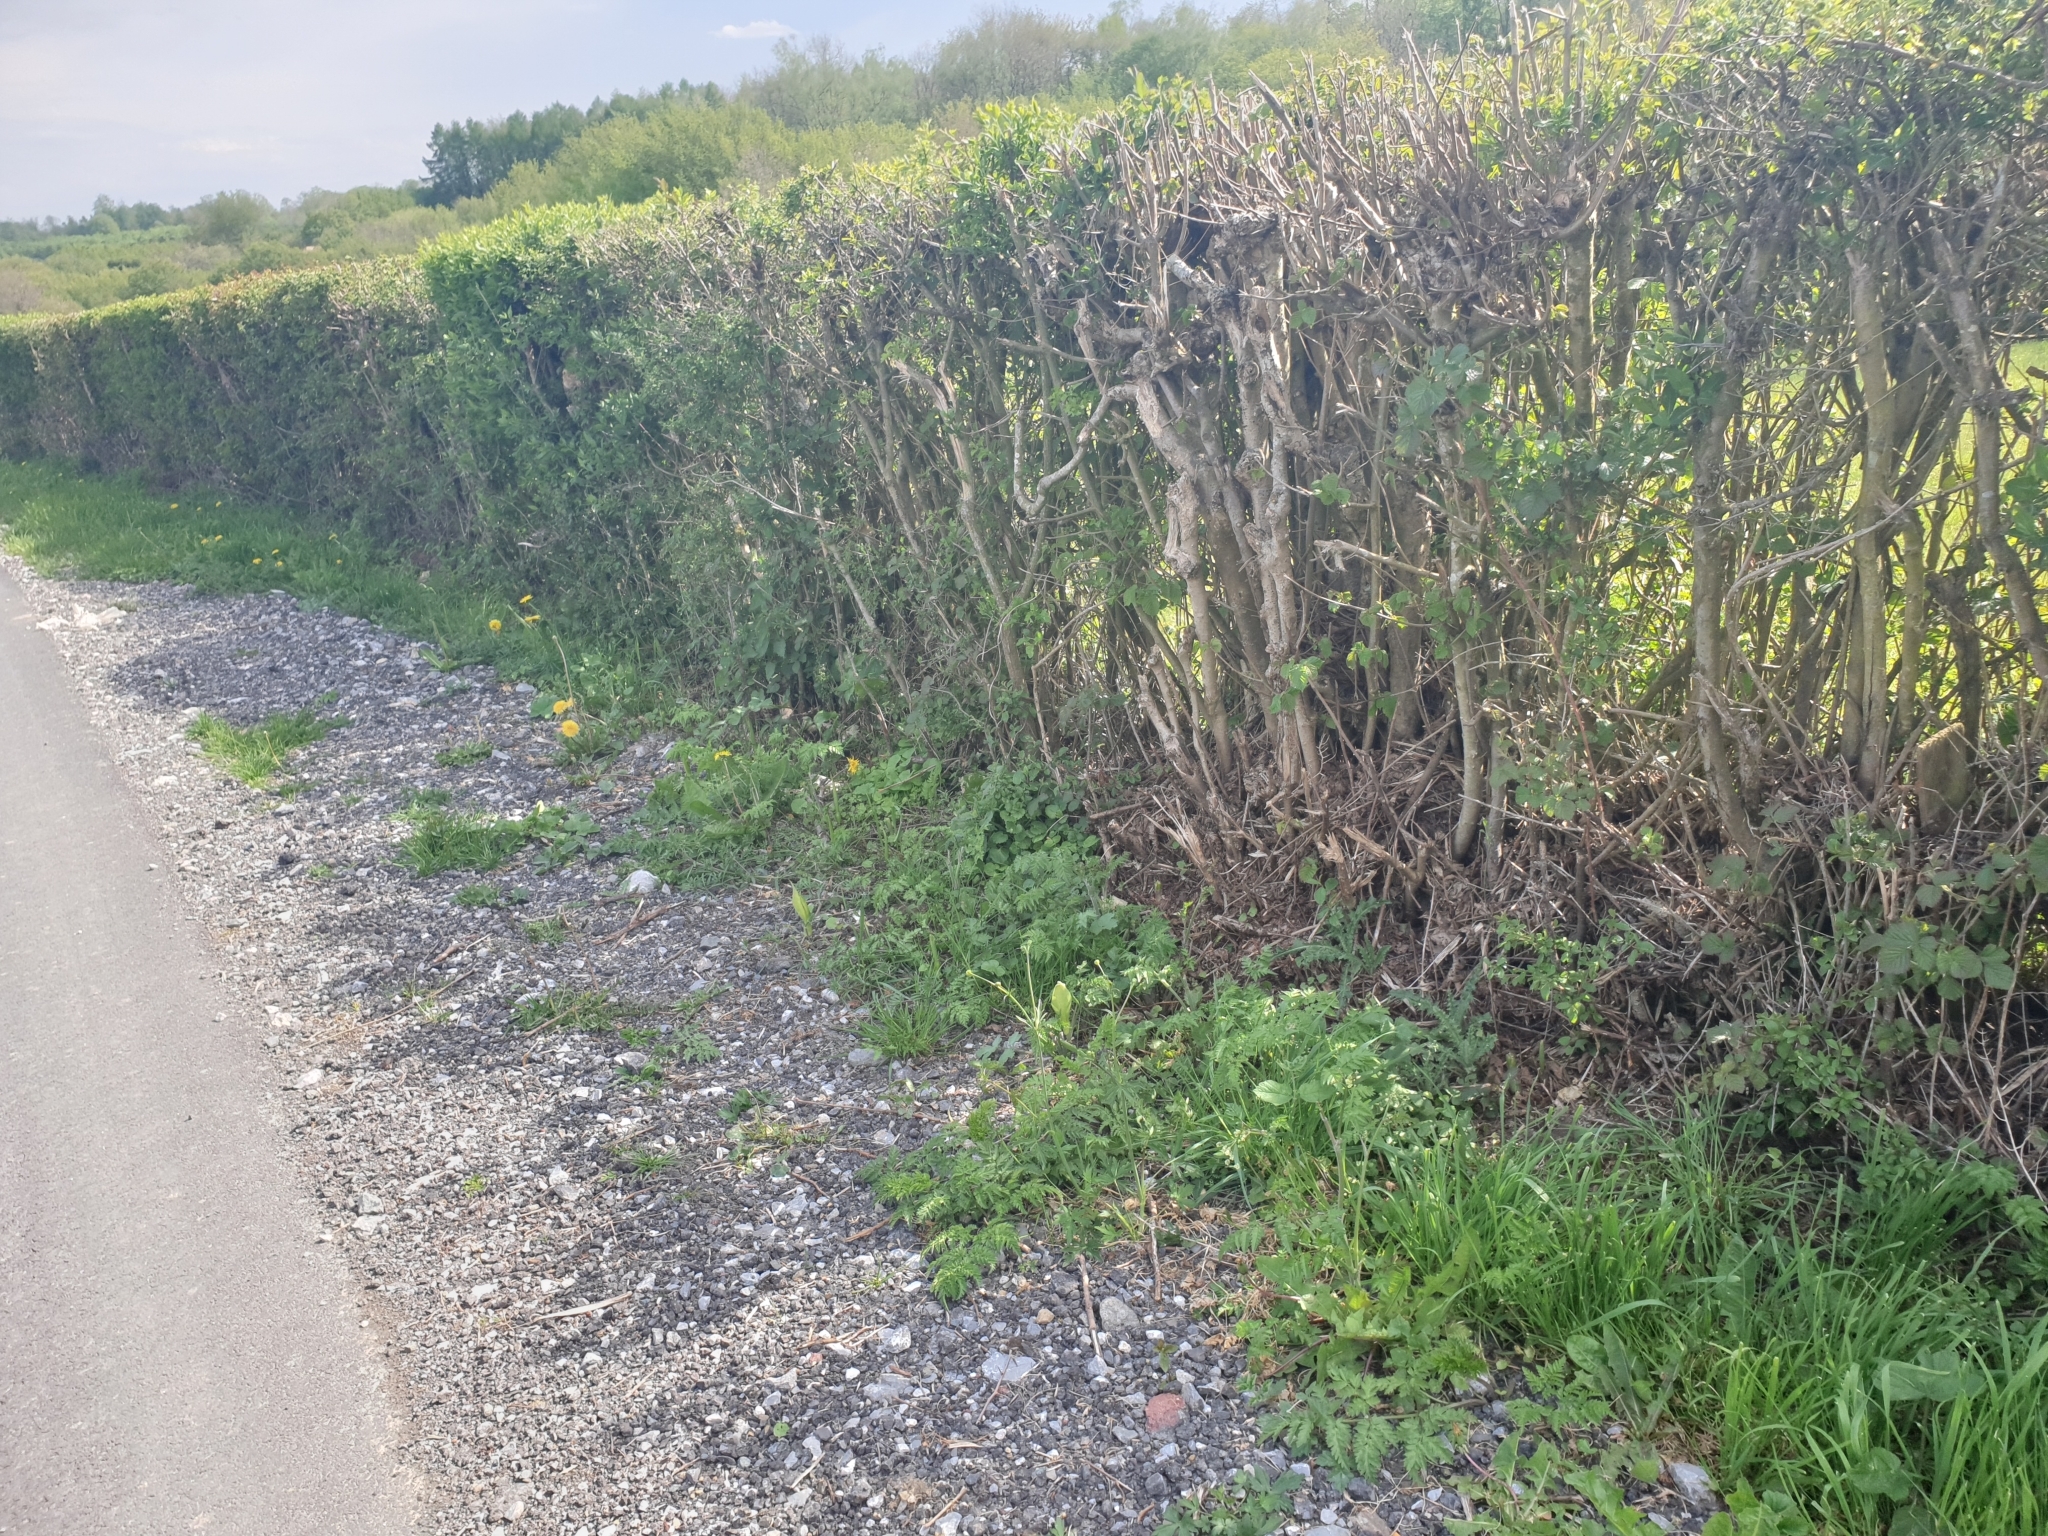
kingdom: Plantae
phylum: Tracheophyta
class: Liliopsida
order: Alismatales
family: Araceae
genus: Arum
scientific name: Arum maculatum
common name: Lords-and-ladies
